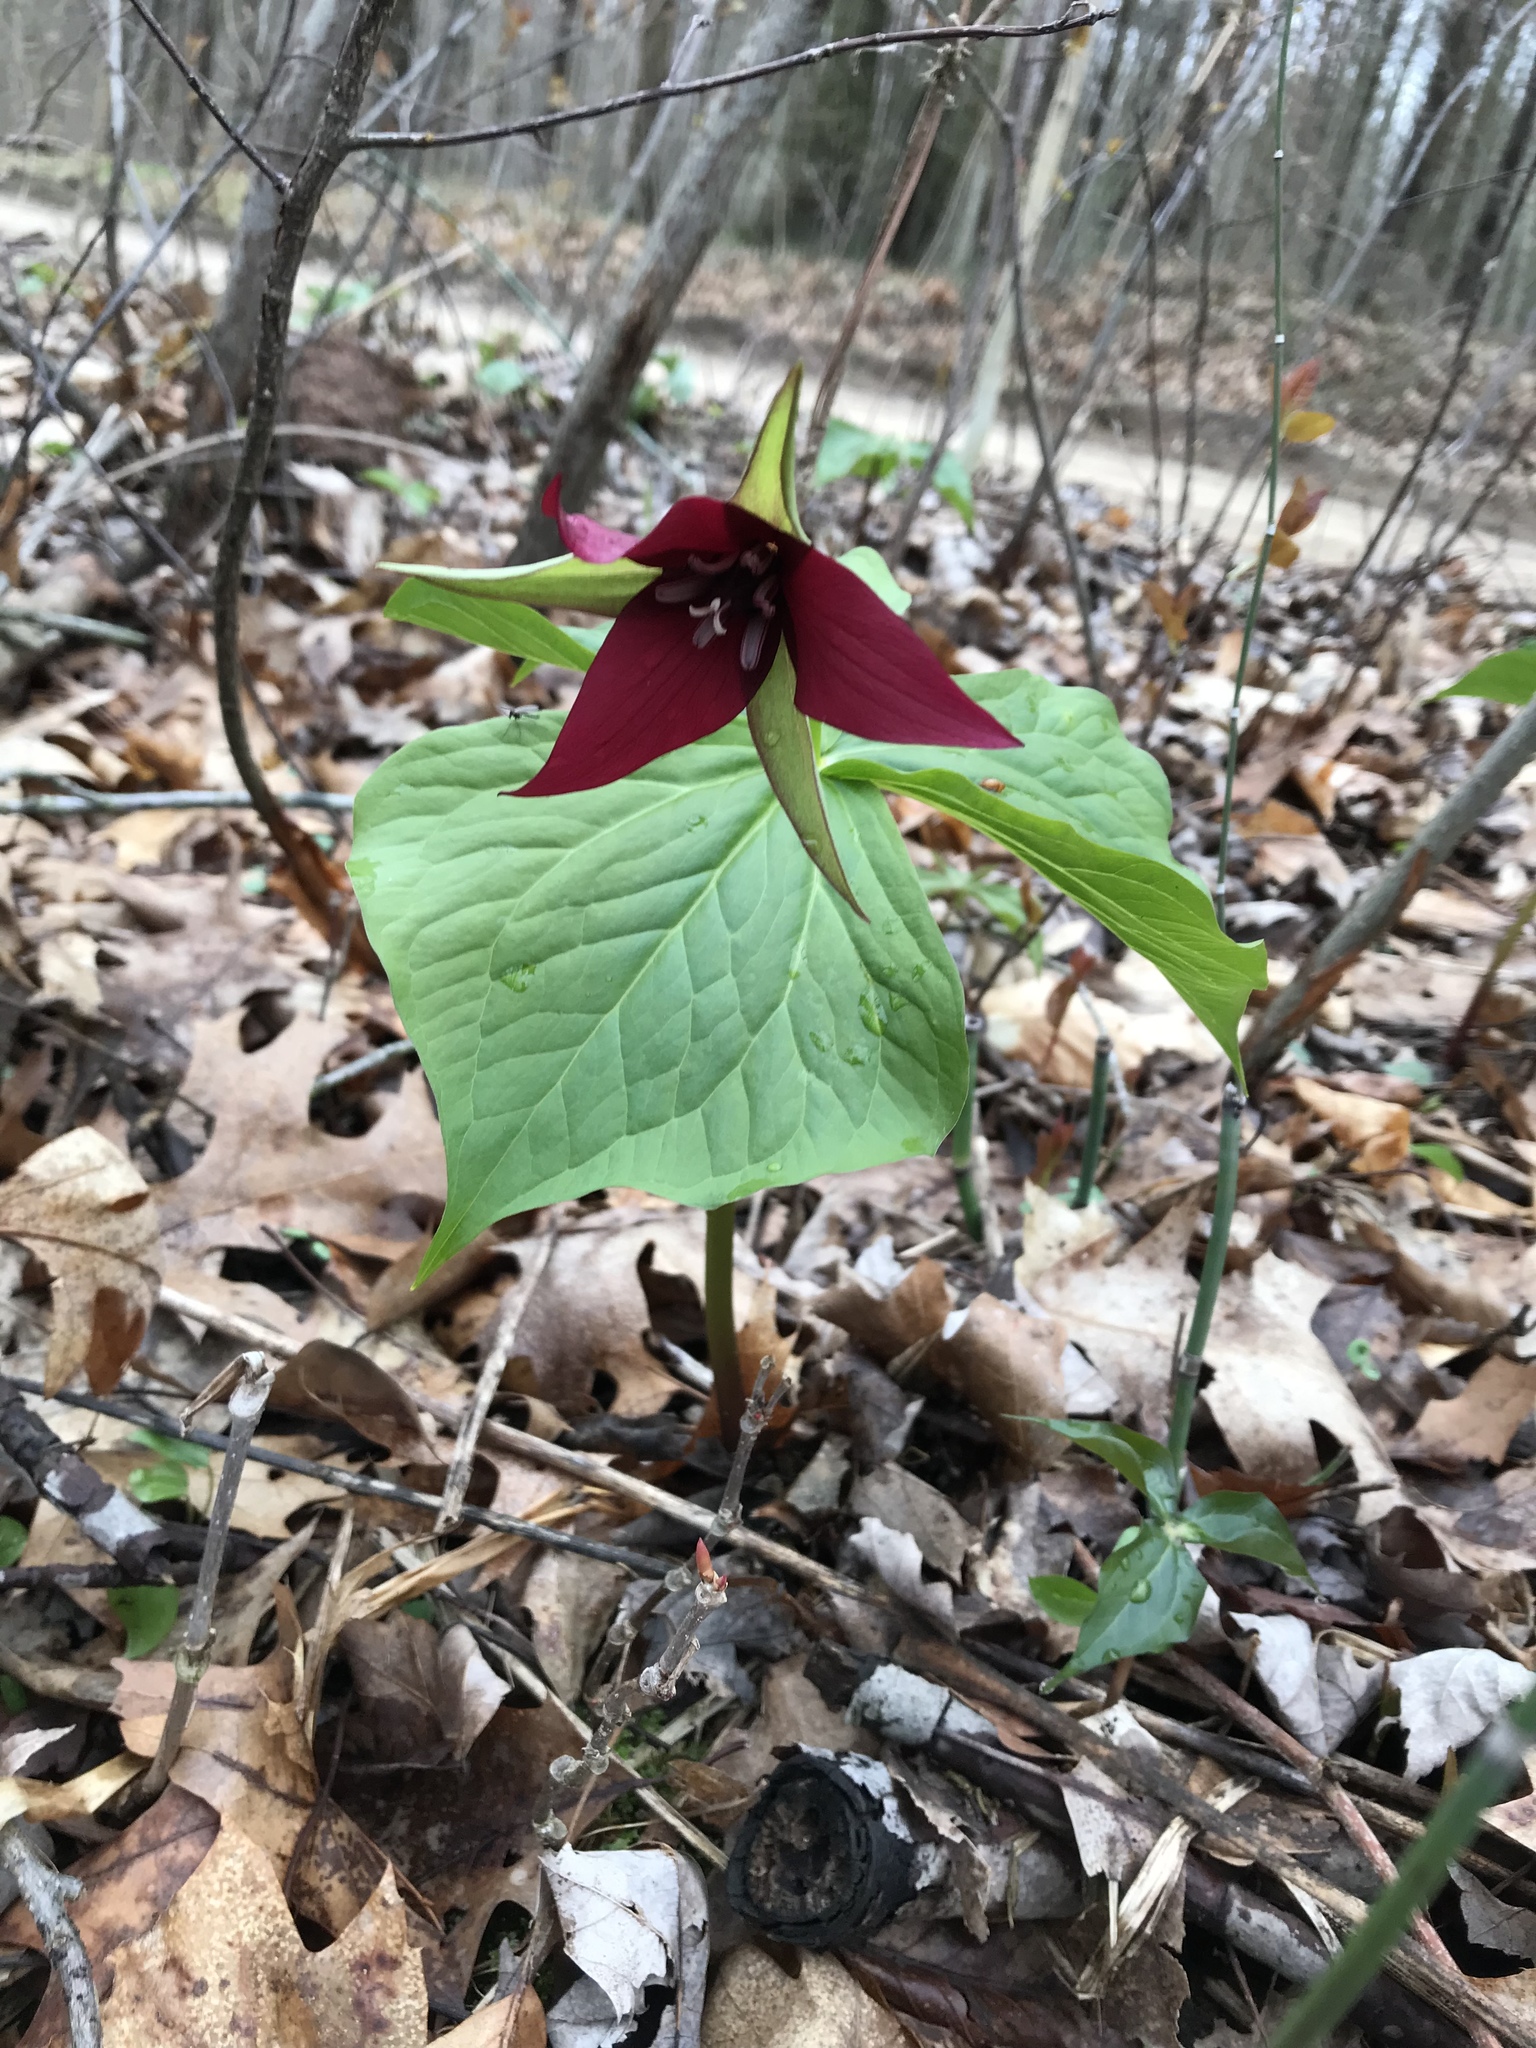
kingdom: Plantae
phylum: Tracheophyta
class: Liliopsida
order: Liliales
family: Melanthiaceae
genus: Trillium
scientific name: Trillium erectum
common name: Purple trillium
